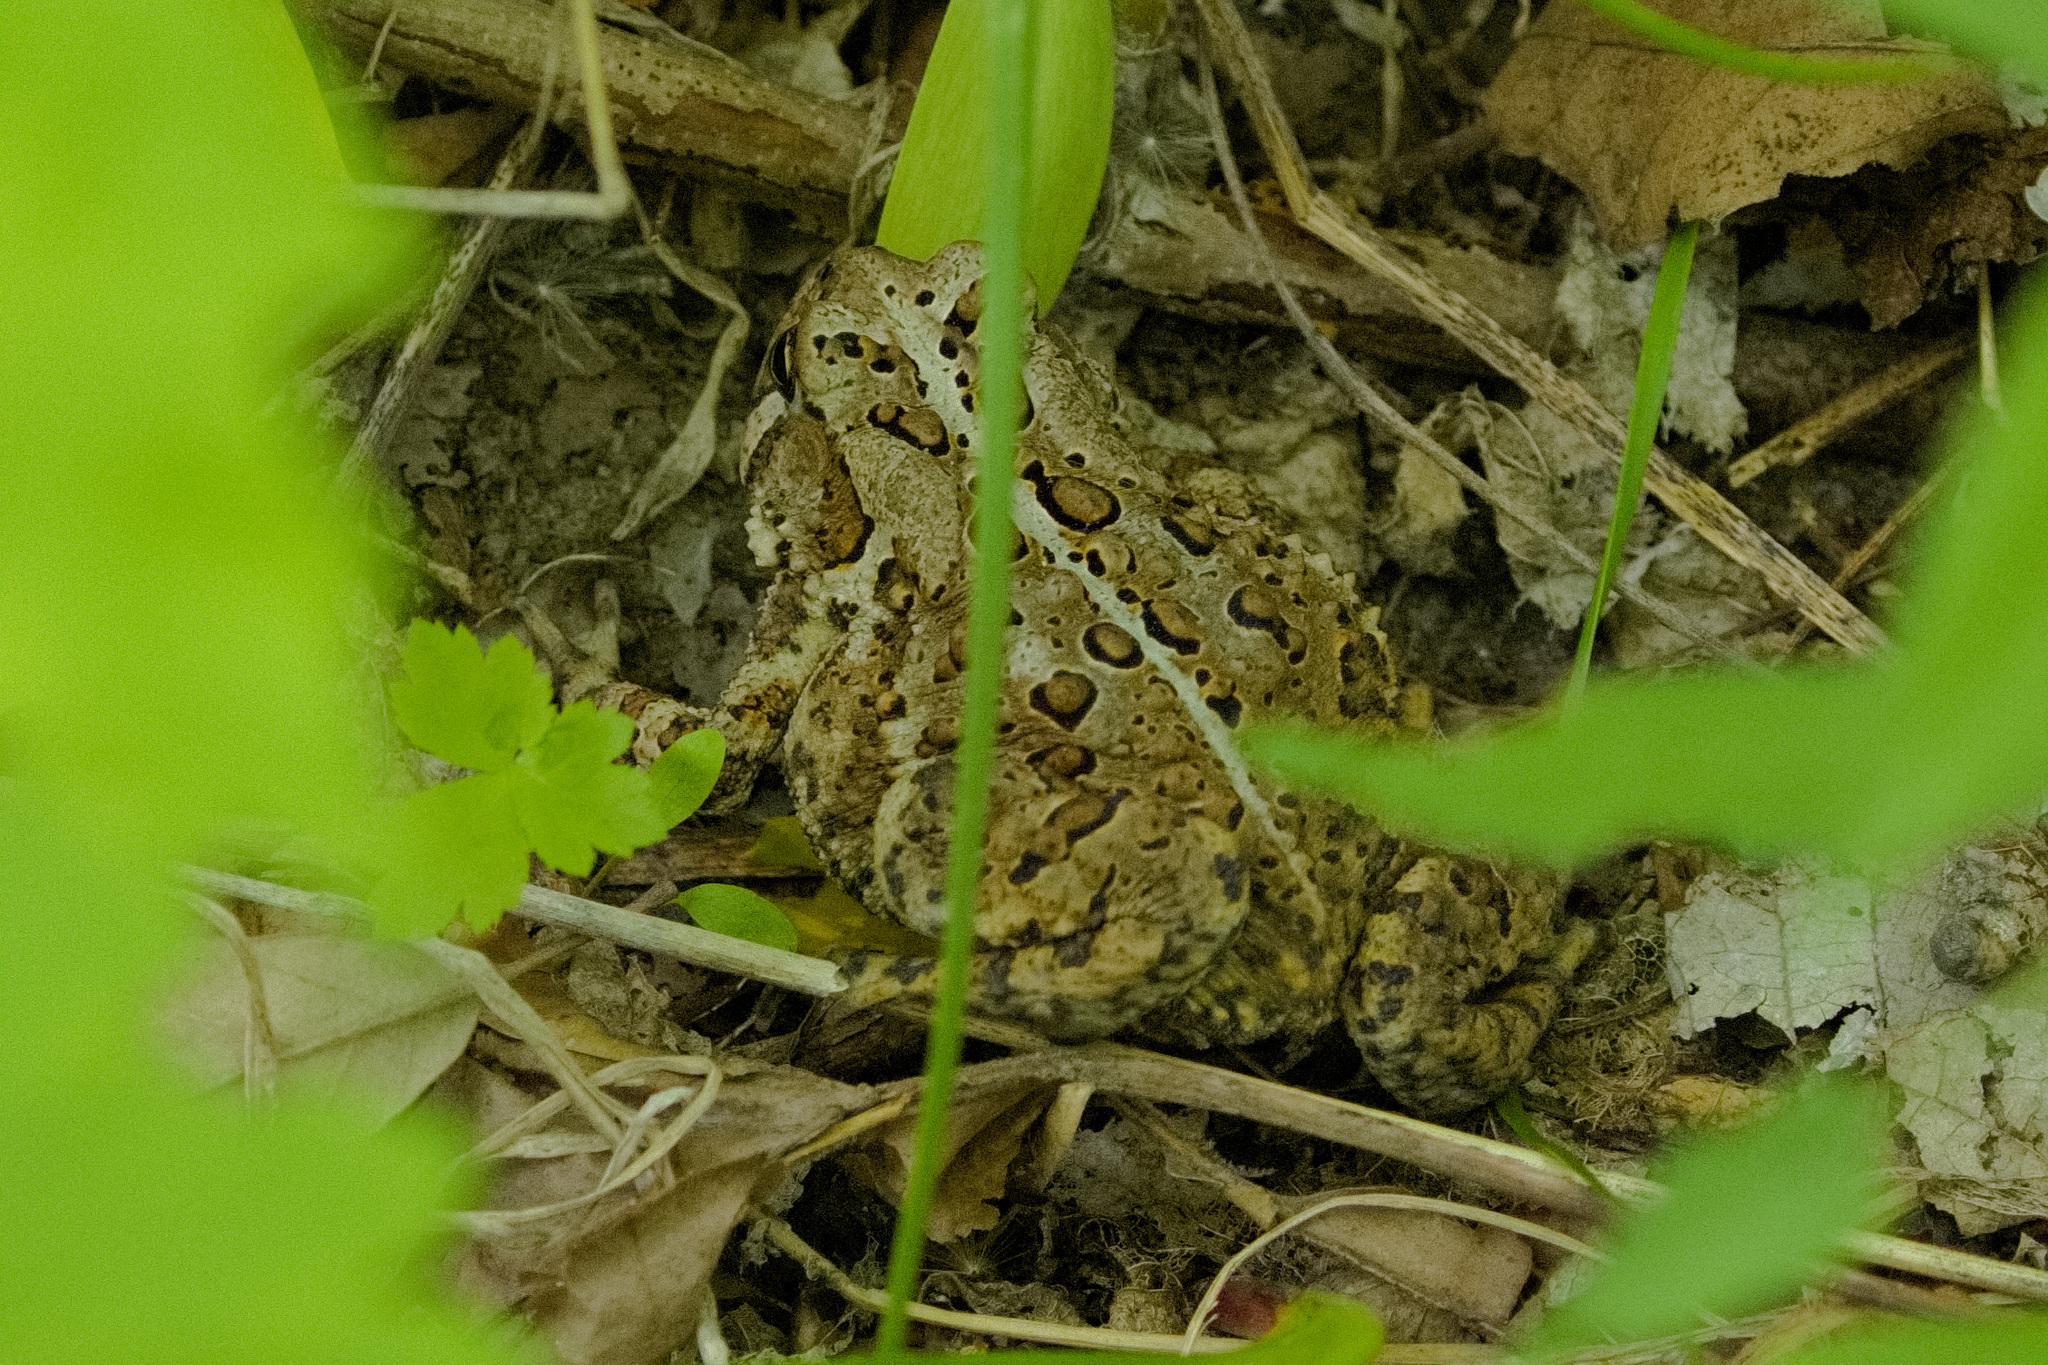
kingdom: Animalia
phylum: Chordata
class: Amphibia
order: Anura
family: Bufonidae
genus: Anaxyrus
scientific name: Anaxyrus americanus
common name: American toad
